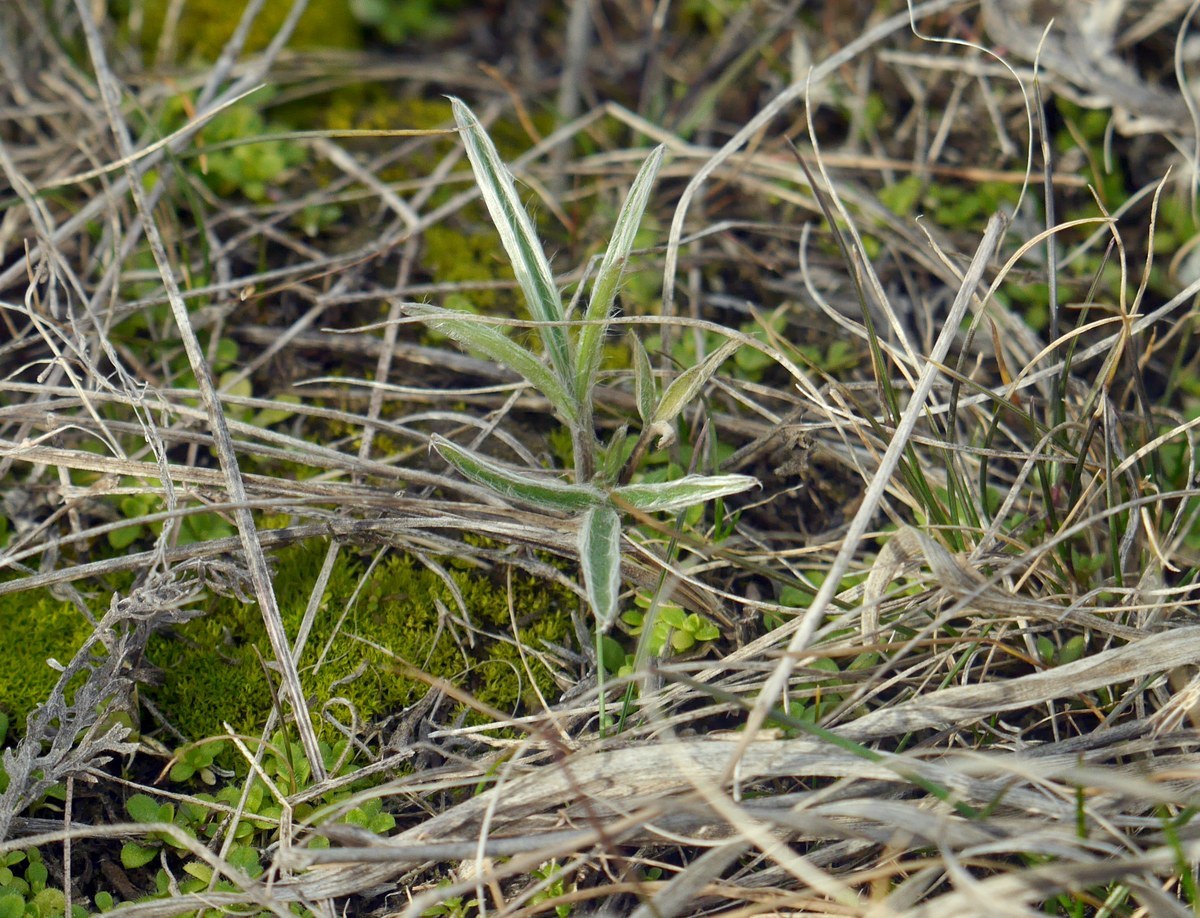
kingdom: Plantae
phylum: Tracheophyta
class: Magnoliopsida
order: Ranunculales
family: Ranunculaceae
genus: Ranunculus
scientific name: Ranunculus illyricus
